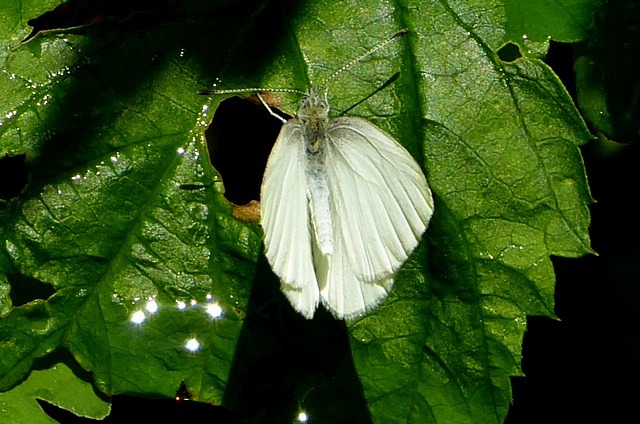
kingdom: Animalia
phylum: Arthropoda
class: Insecta
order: Lepidoptera
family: Pieridae
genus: Pieris
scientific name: Pieris oleracea
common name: Mustard white
